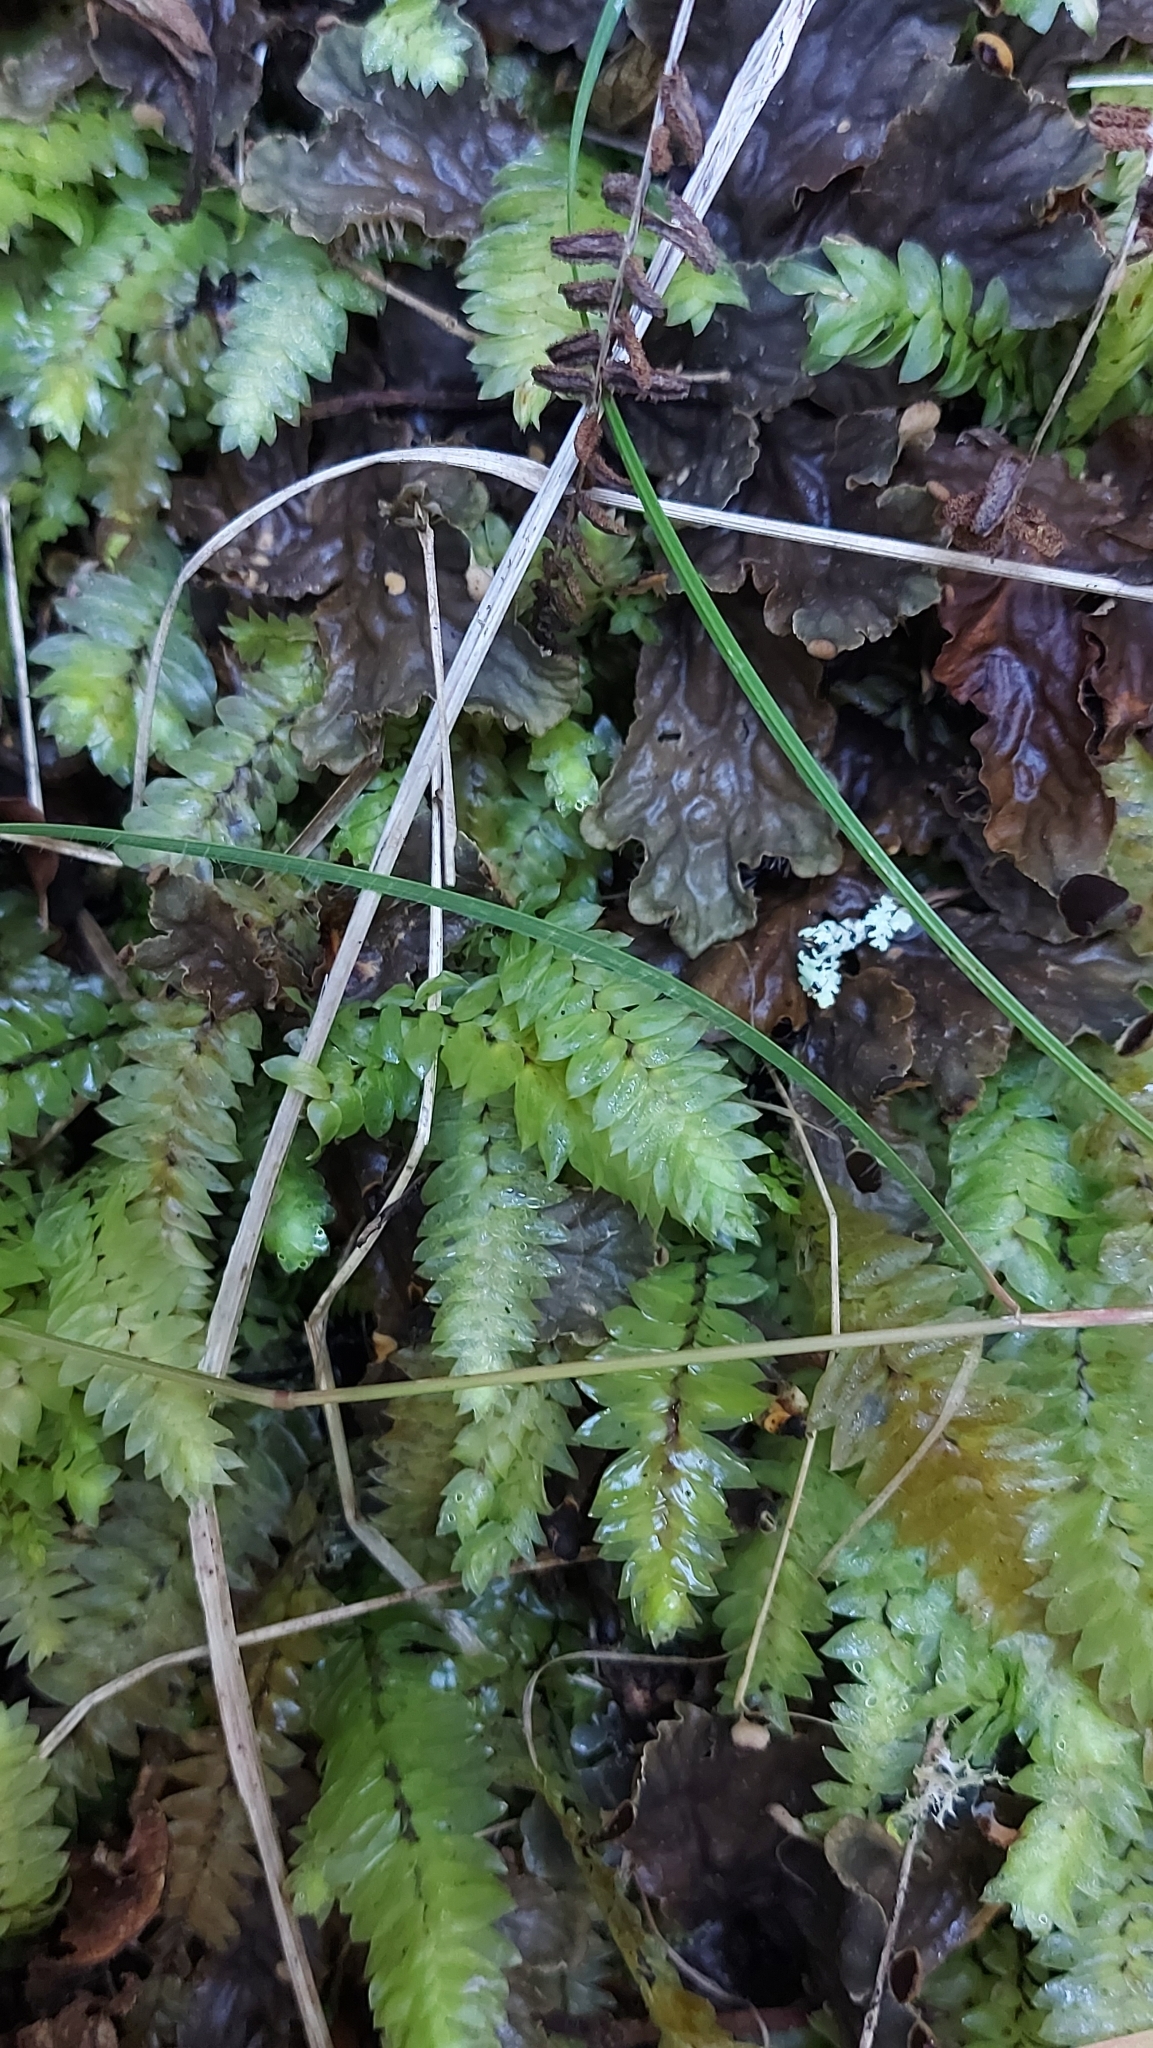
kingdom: Plantae
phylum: Bryophyta
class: Bryopsida
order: Hypopterygiales
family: Hypopterygiaceae
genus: Cyathophorum
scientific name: Cyathophorum bulbosum
